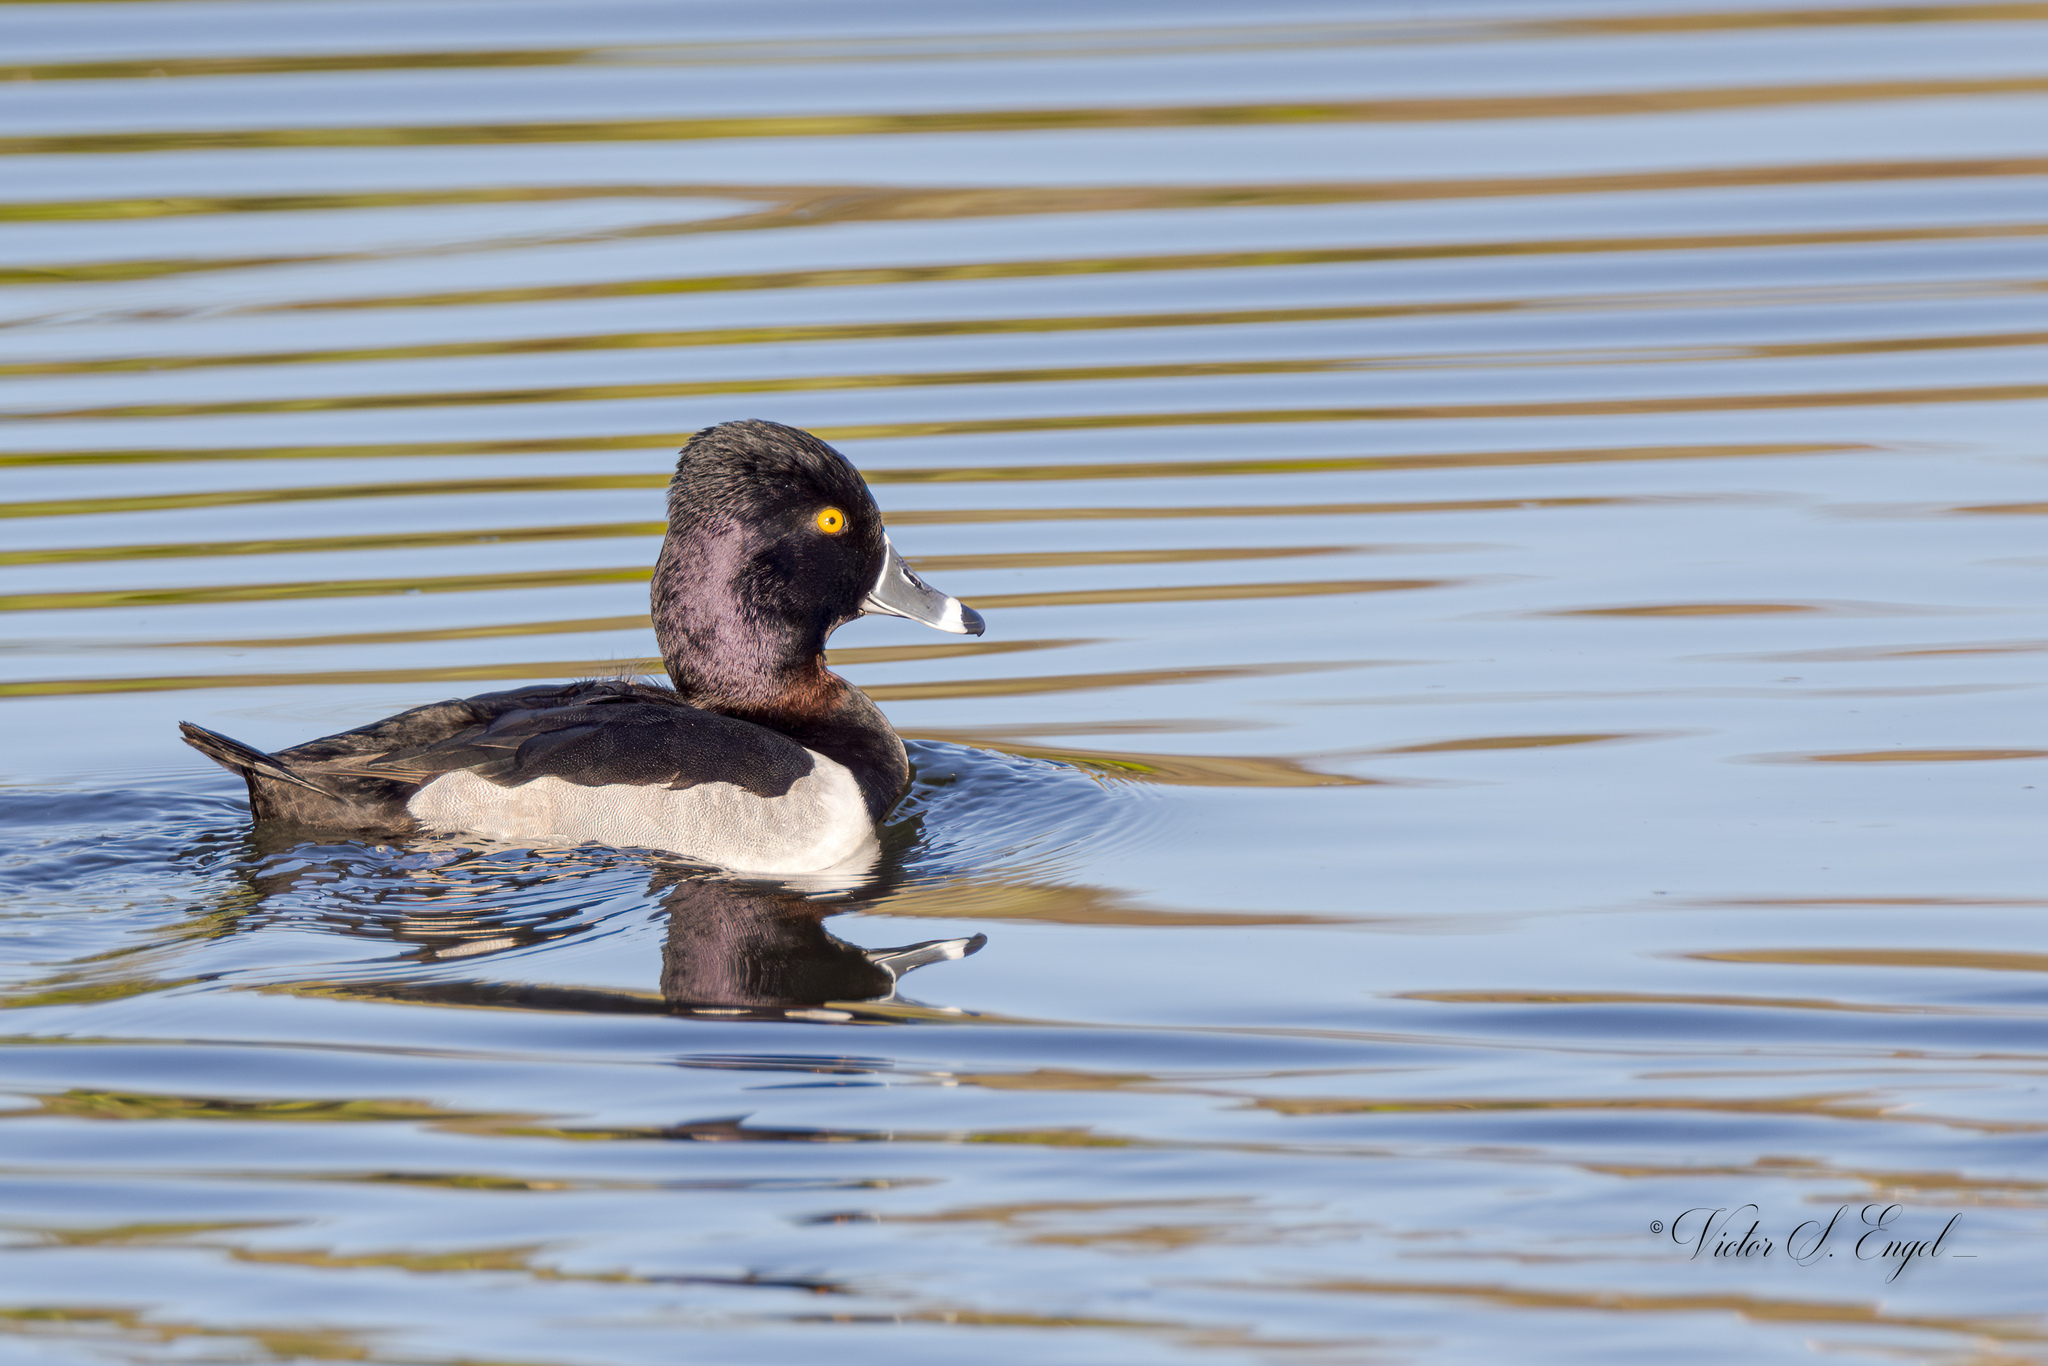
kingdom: Animalia
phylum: Chordata
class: Aves
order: Anseriformes
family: Anatidae
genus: Aythya
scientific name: Aythya collaris
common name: Ring-necked duck
